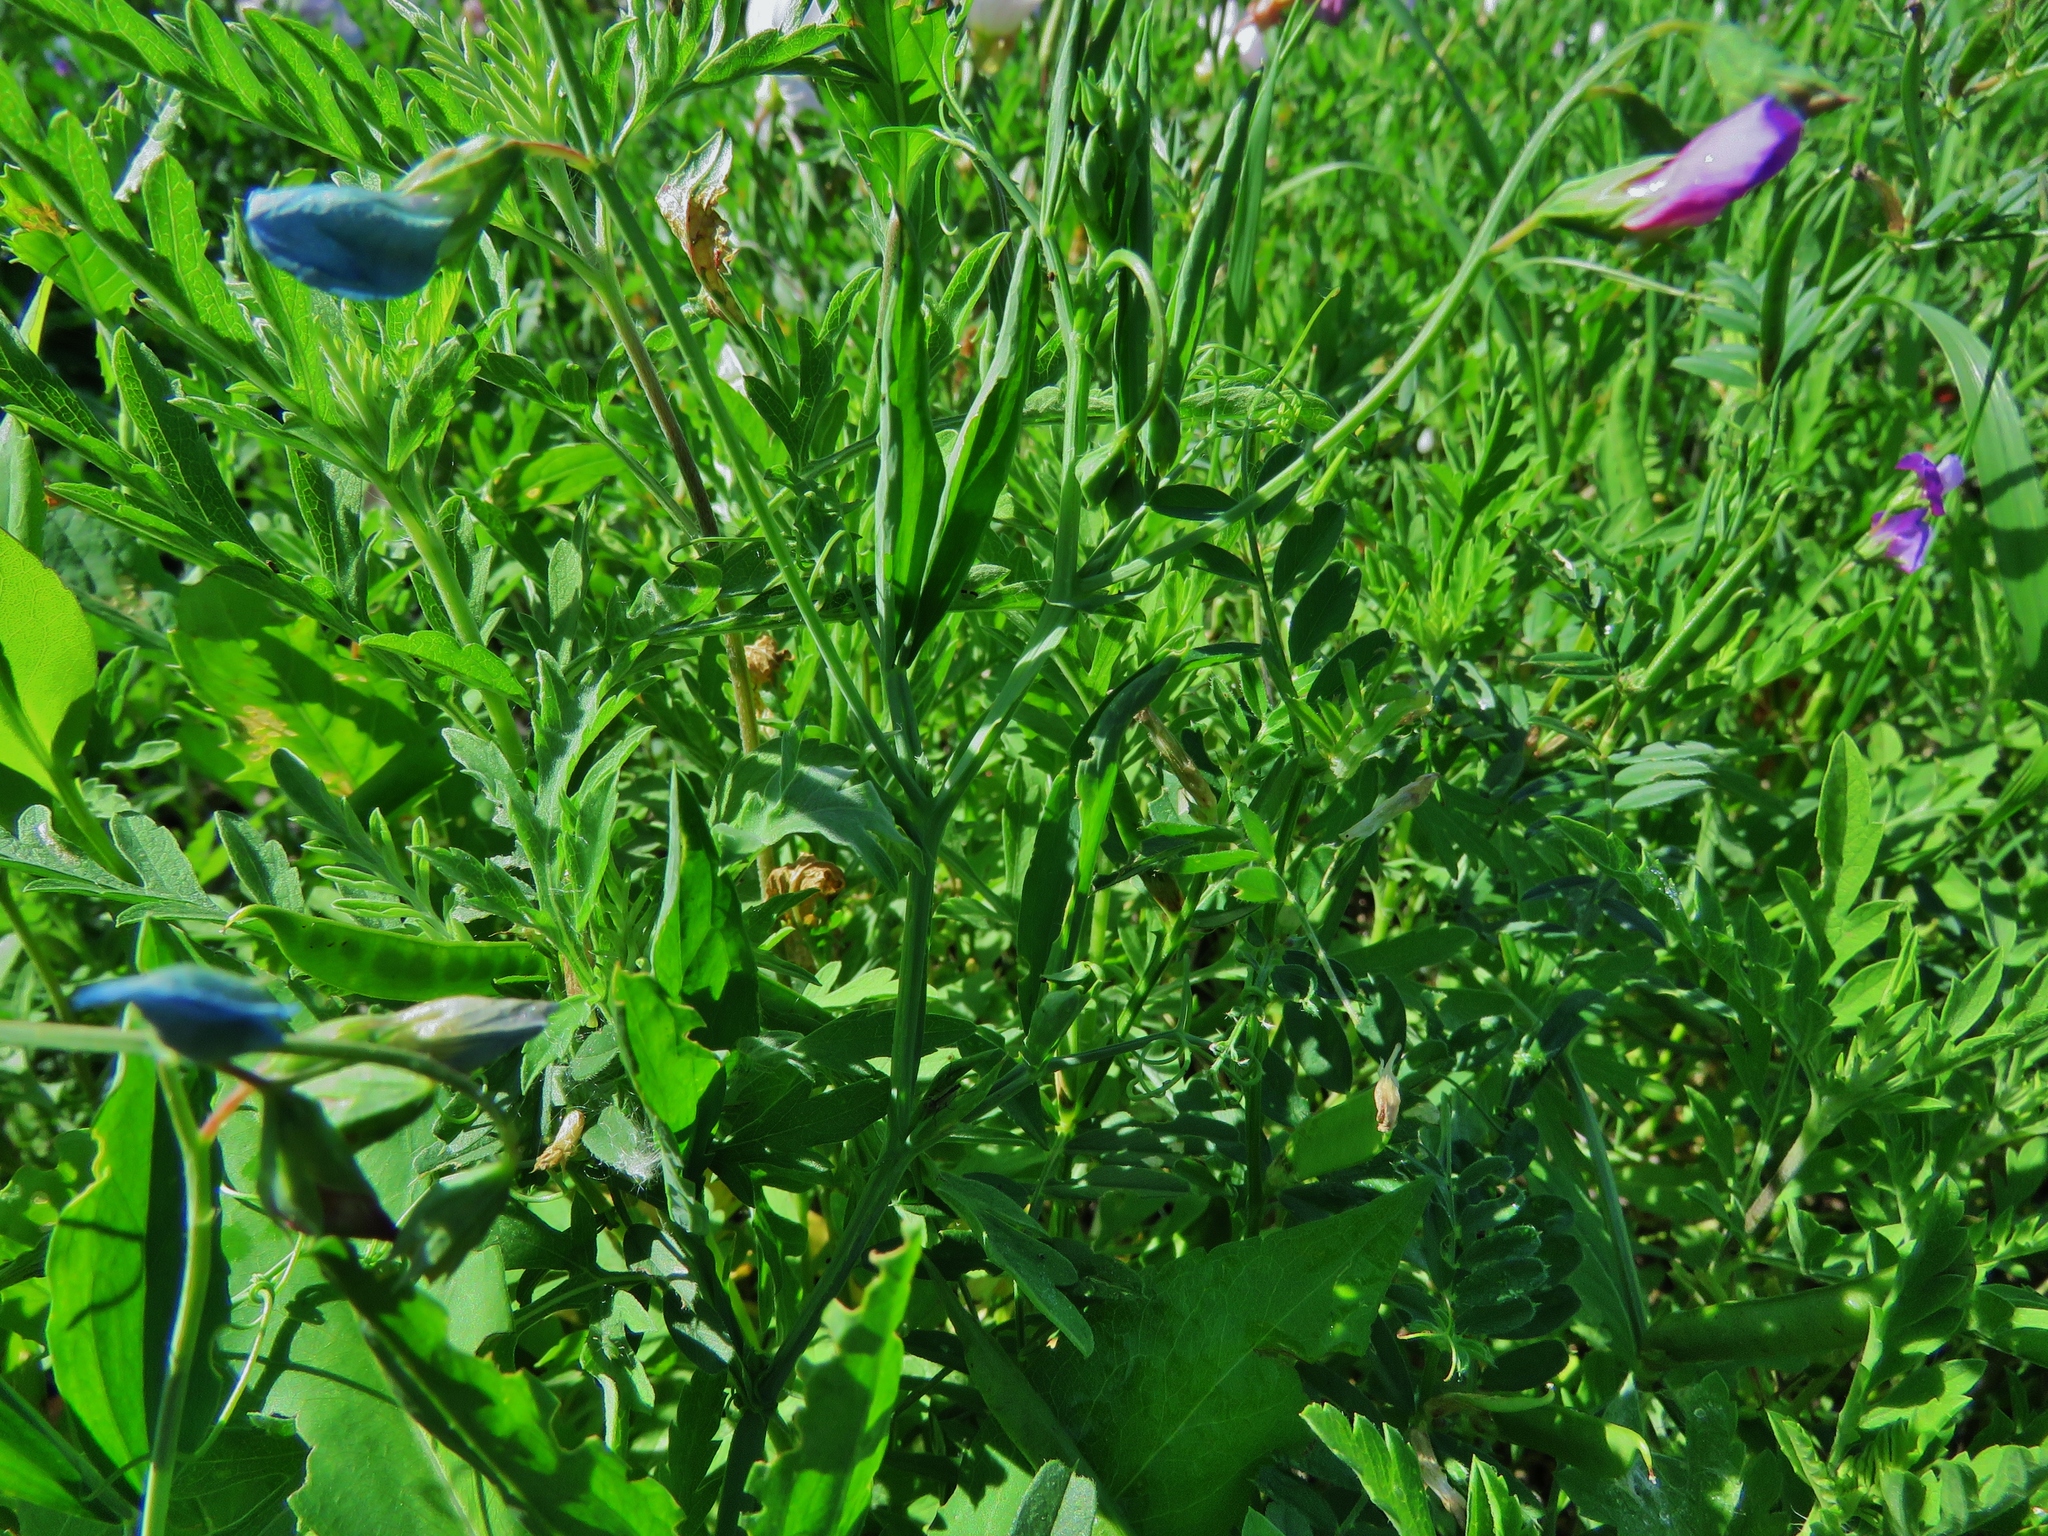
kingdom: Plantae
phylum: Tracheophyta
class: Magnoliopsida
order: Fabales
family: Fabaceae
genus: Lathyrus
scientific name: Lathyrus hirsutus
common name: Hairy vetchling
